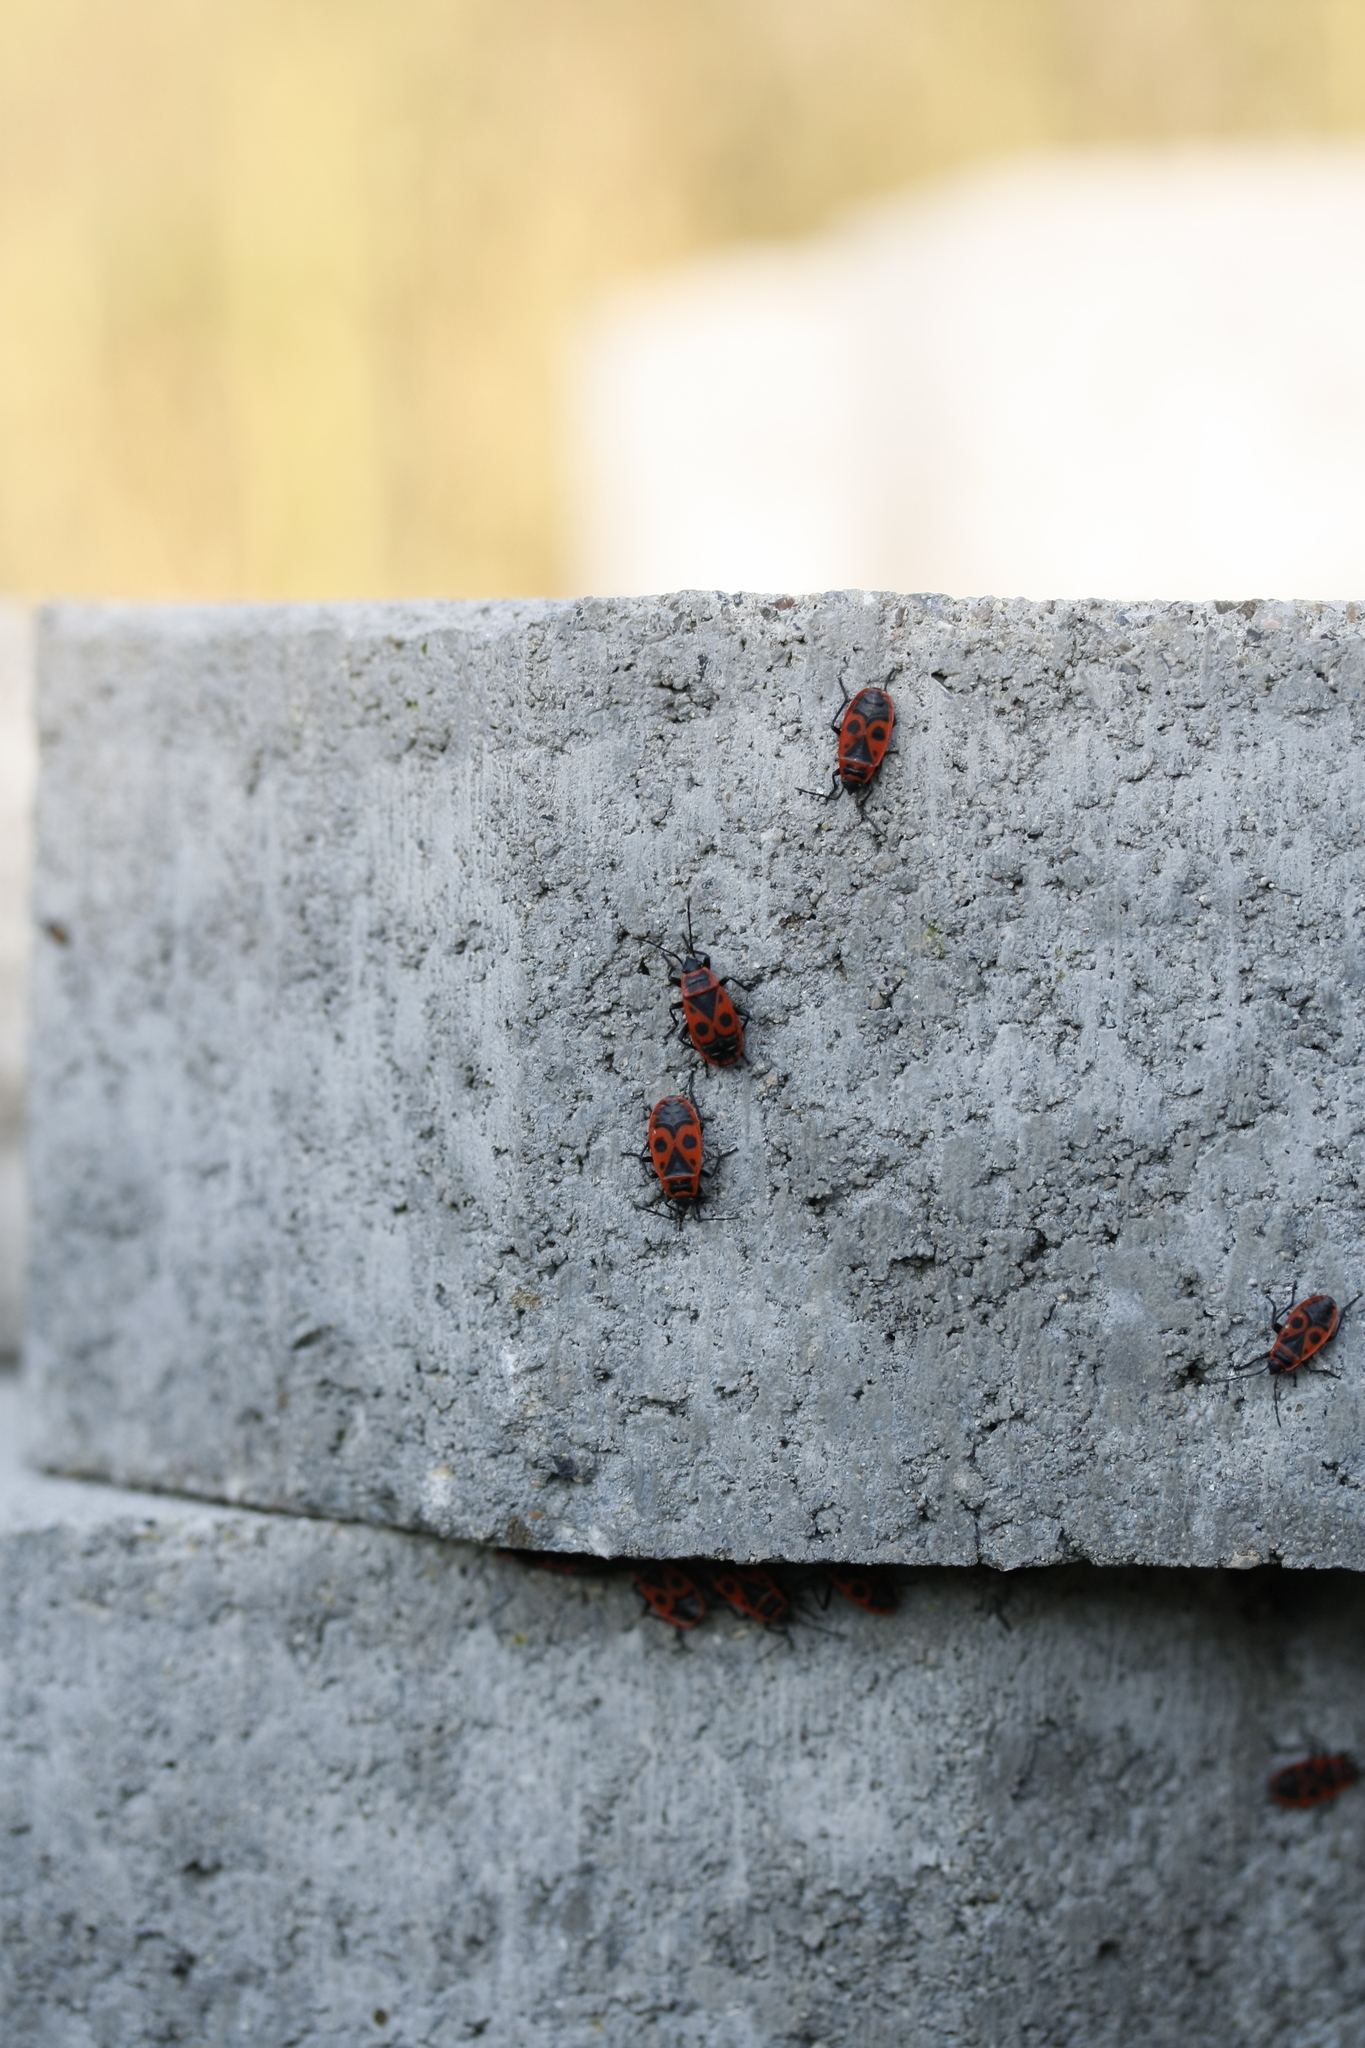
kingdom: Animalia
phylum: Arthropoda
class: Insecta
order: Hemiptera
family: Pyrrhocoridae
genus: Pyrrhocoris
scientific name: Pyrrhocoris apterus
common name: Firebug
